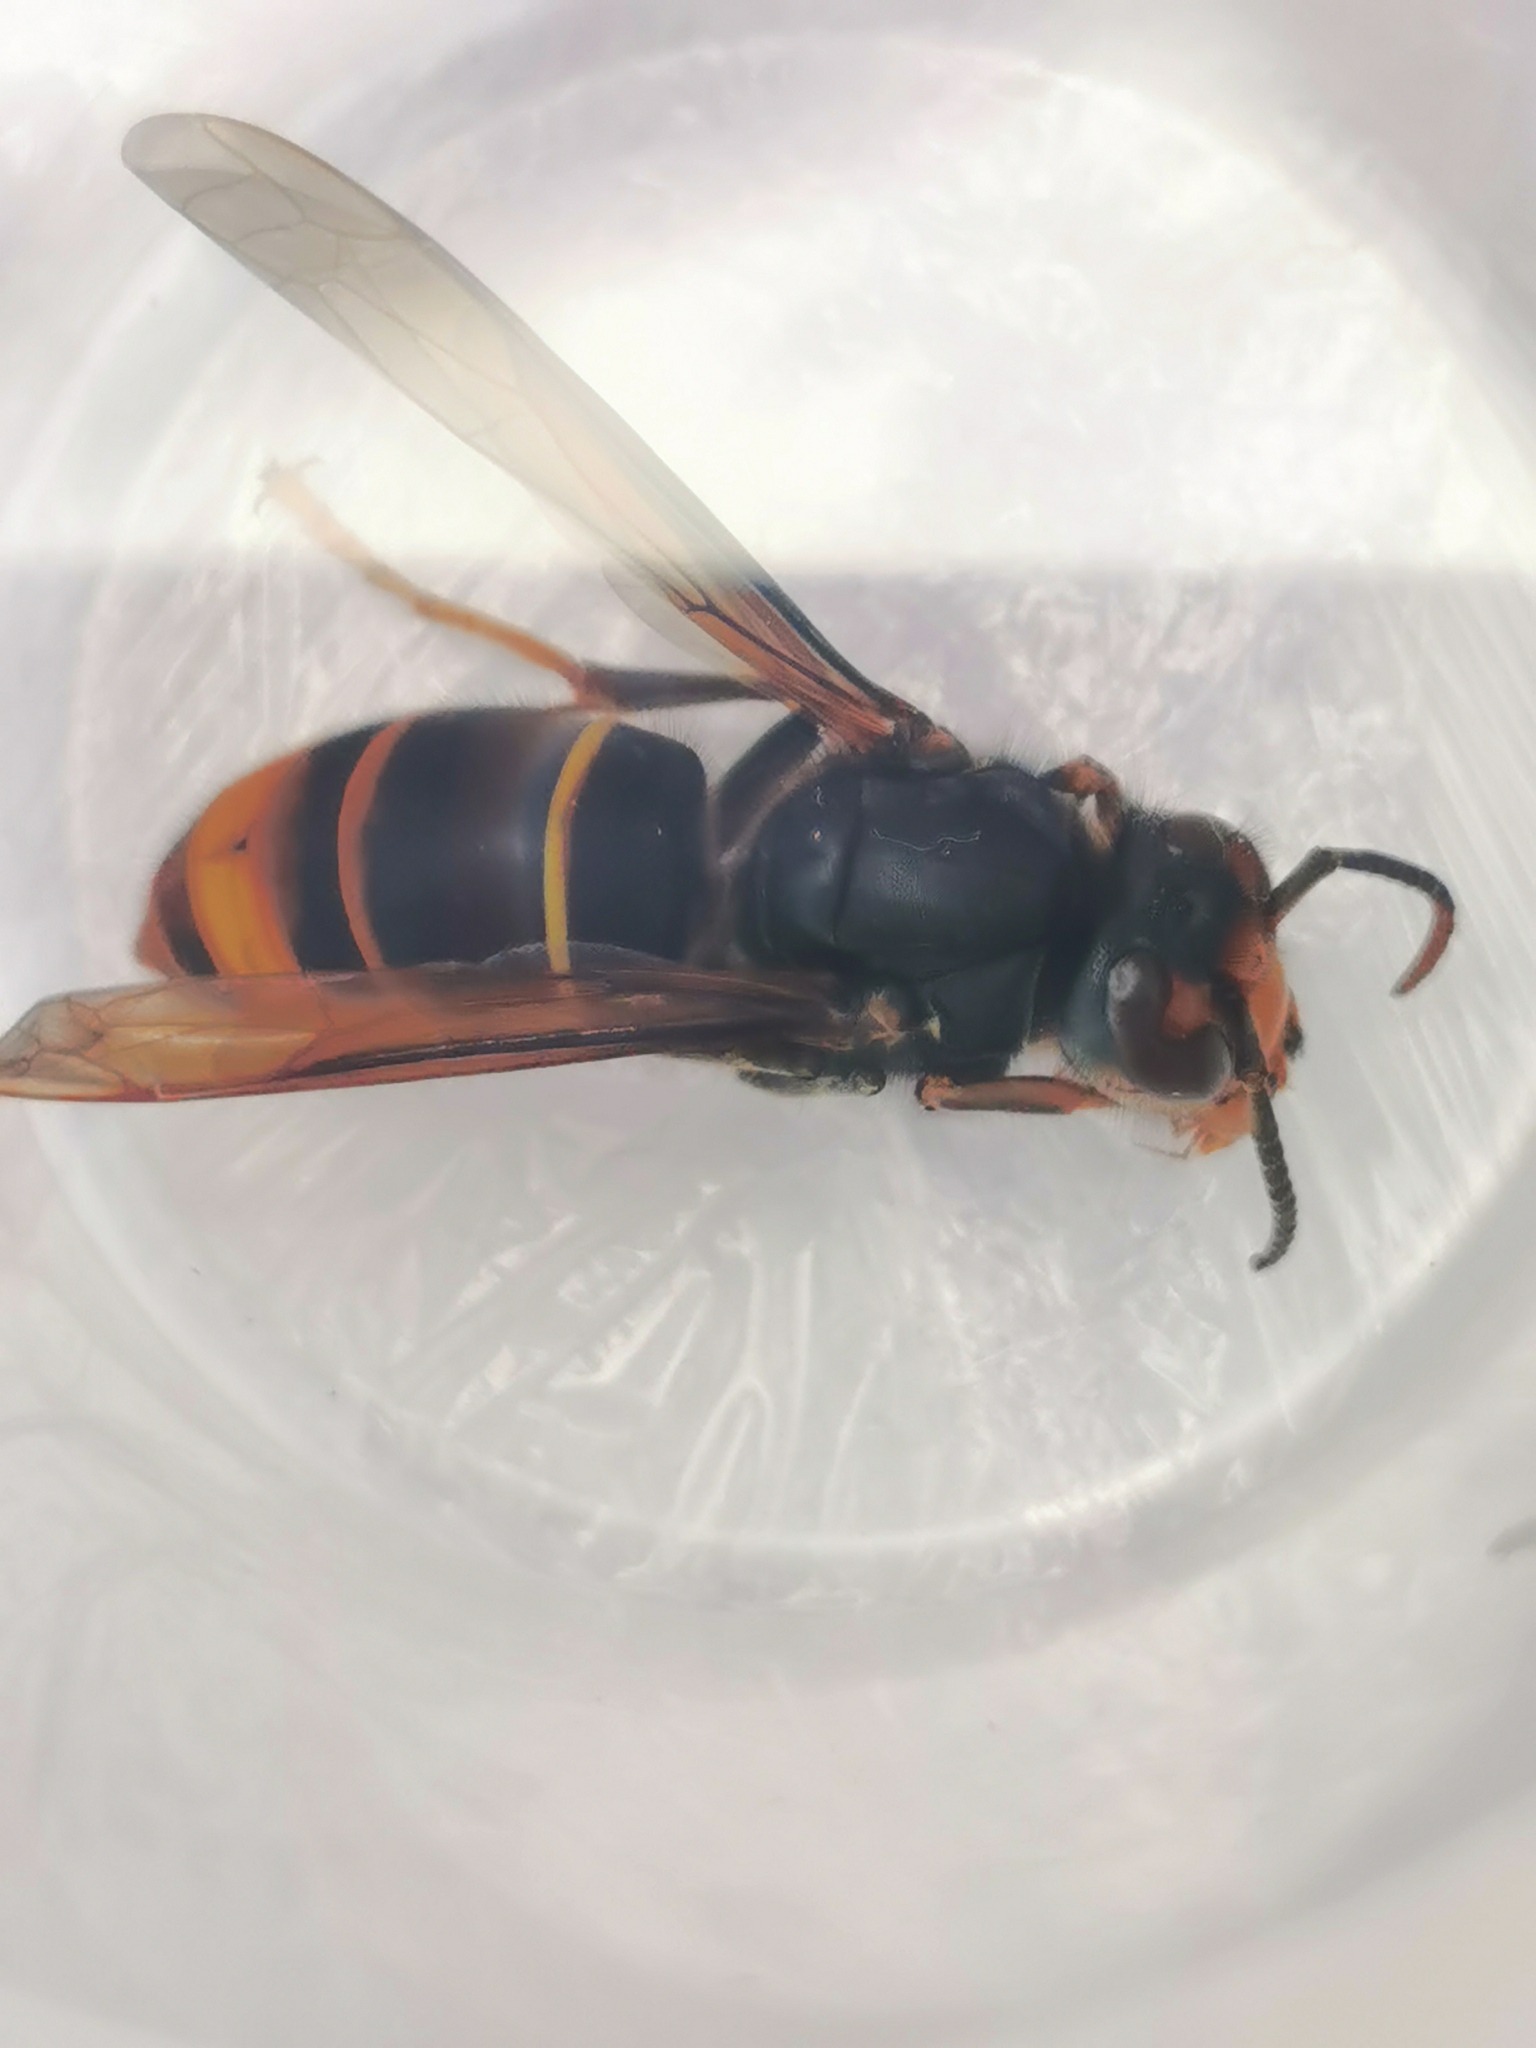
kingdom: Animalia
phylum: Arthropoda
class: Insecta
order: Hymenoptera
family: Vespidae
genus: Vespa
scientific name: Vespa velutina
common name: Asian hornet
